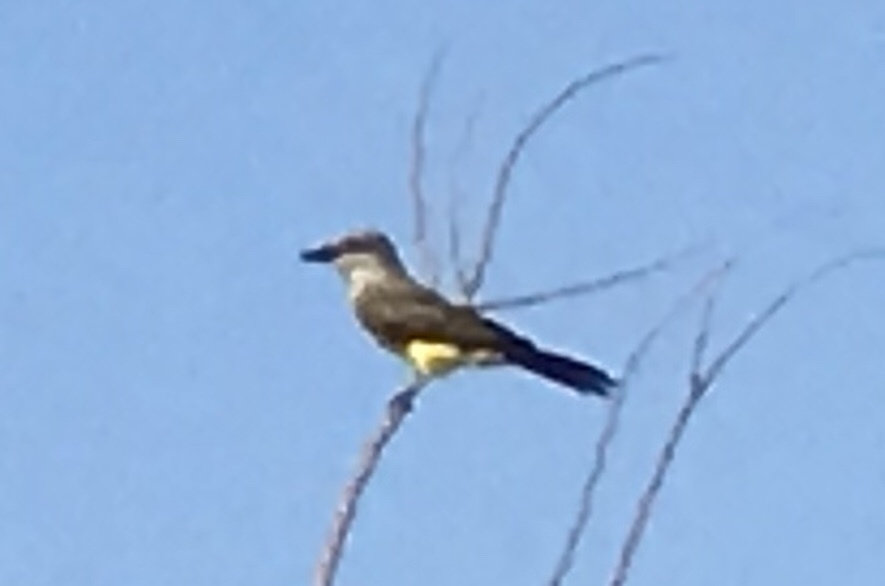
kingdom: Animalia
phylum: Chordata
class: Aves
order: Passeriformes
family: Tyrannidae
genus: Tyrannus
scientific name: Tyrannus melancholicus
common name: Tropical kingbird
